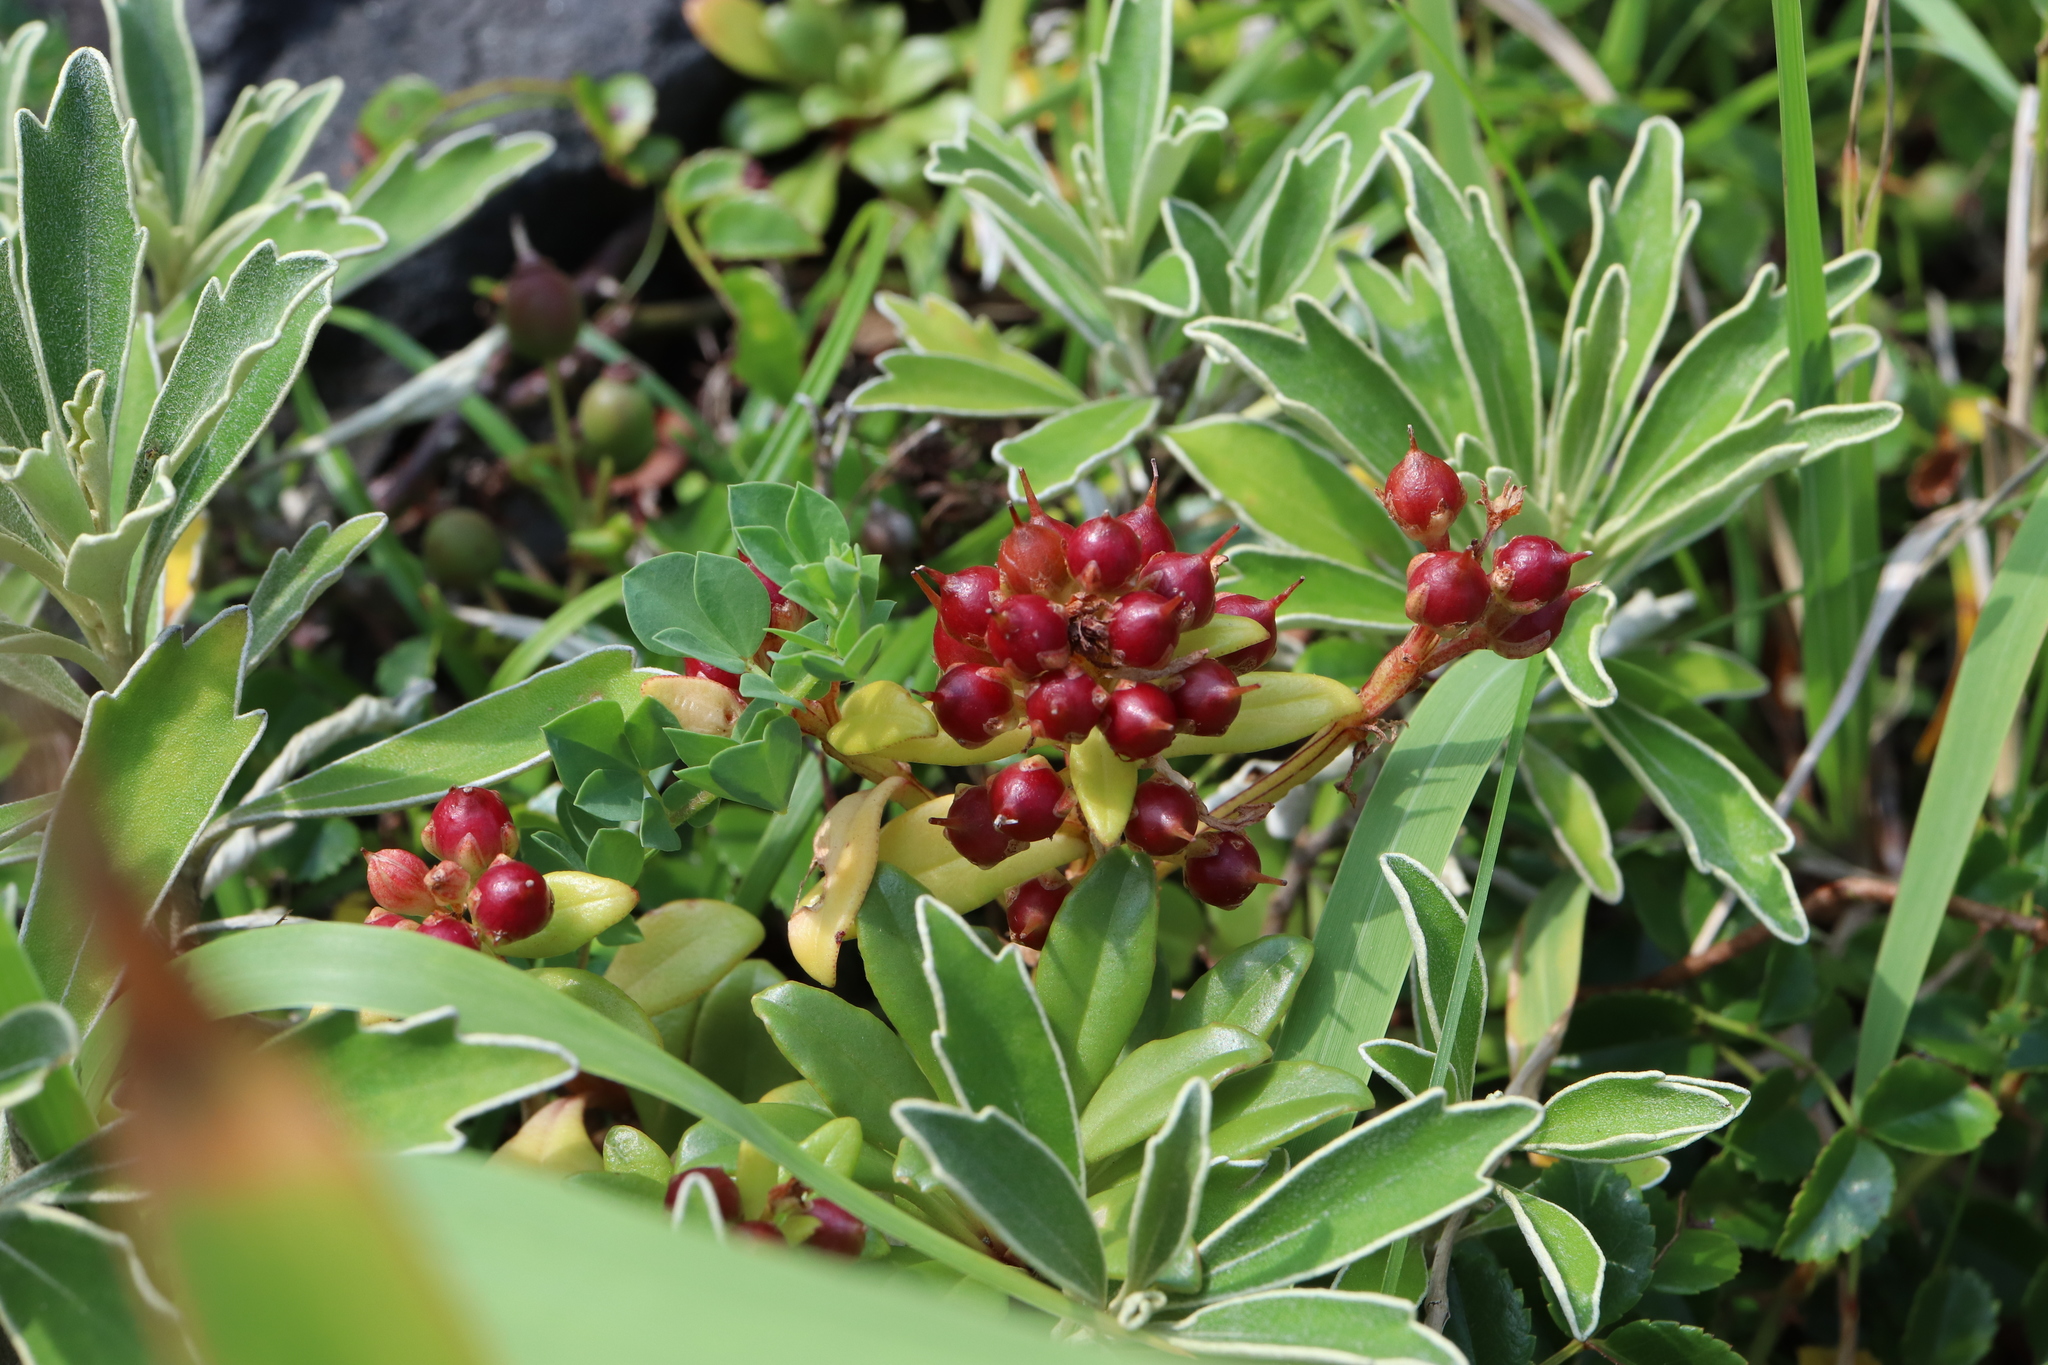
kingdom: Plantae
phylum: Tracheophyta
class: Magnoliopsida
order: Ericales
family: Primulaceae
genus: Lysimachia
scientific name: Lysimachia mauritiana
